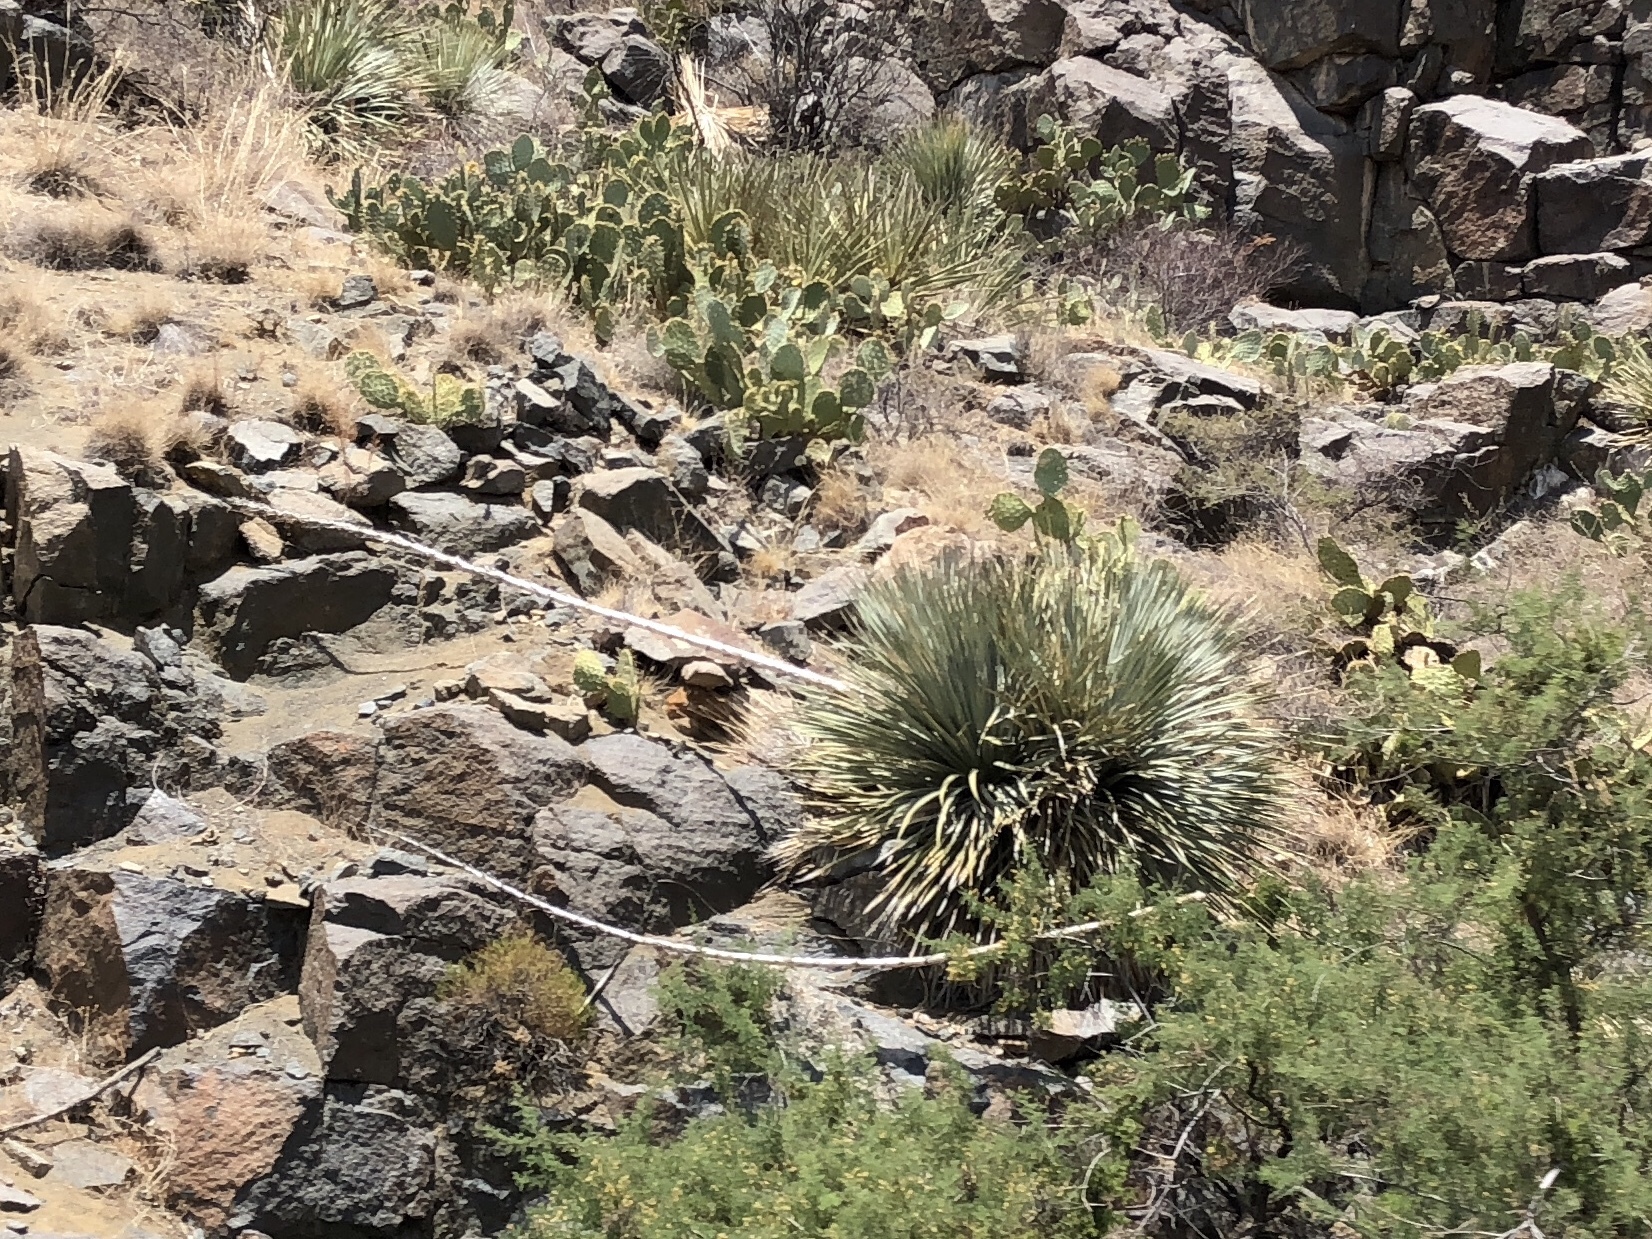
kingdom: Plantae
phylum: Tracheophyta
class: Liliopsida
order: Asparagales
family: Asparagaceae
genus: Dasylirion
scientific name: Dasylirion wheeleri
